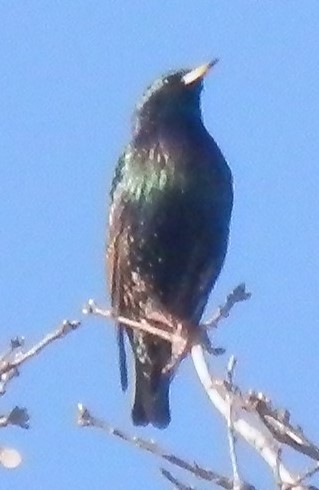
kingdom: Animalia
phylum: Chordata
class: Aves
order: Passeriformes
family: Sturnidae
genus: Sturnus
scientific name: Sturnus vulgaris
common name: Common starling
